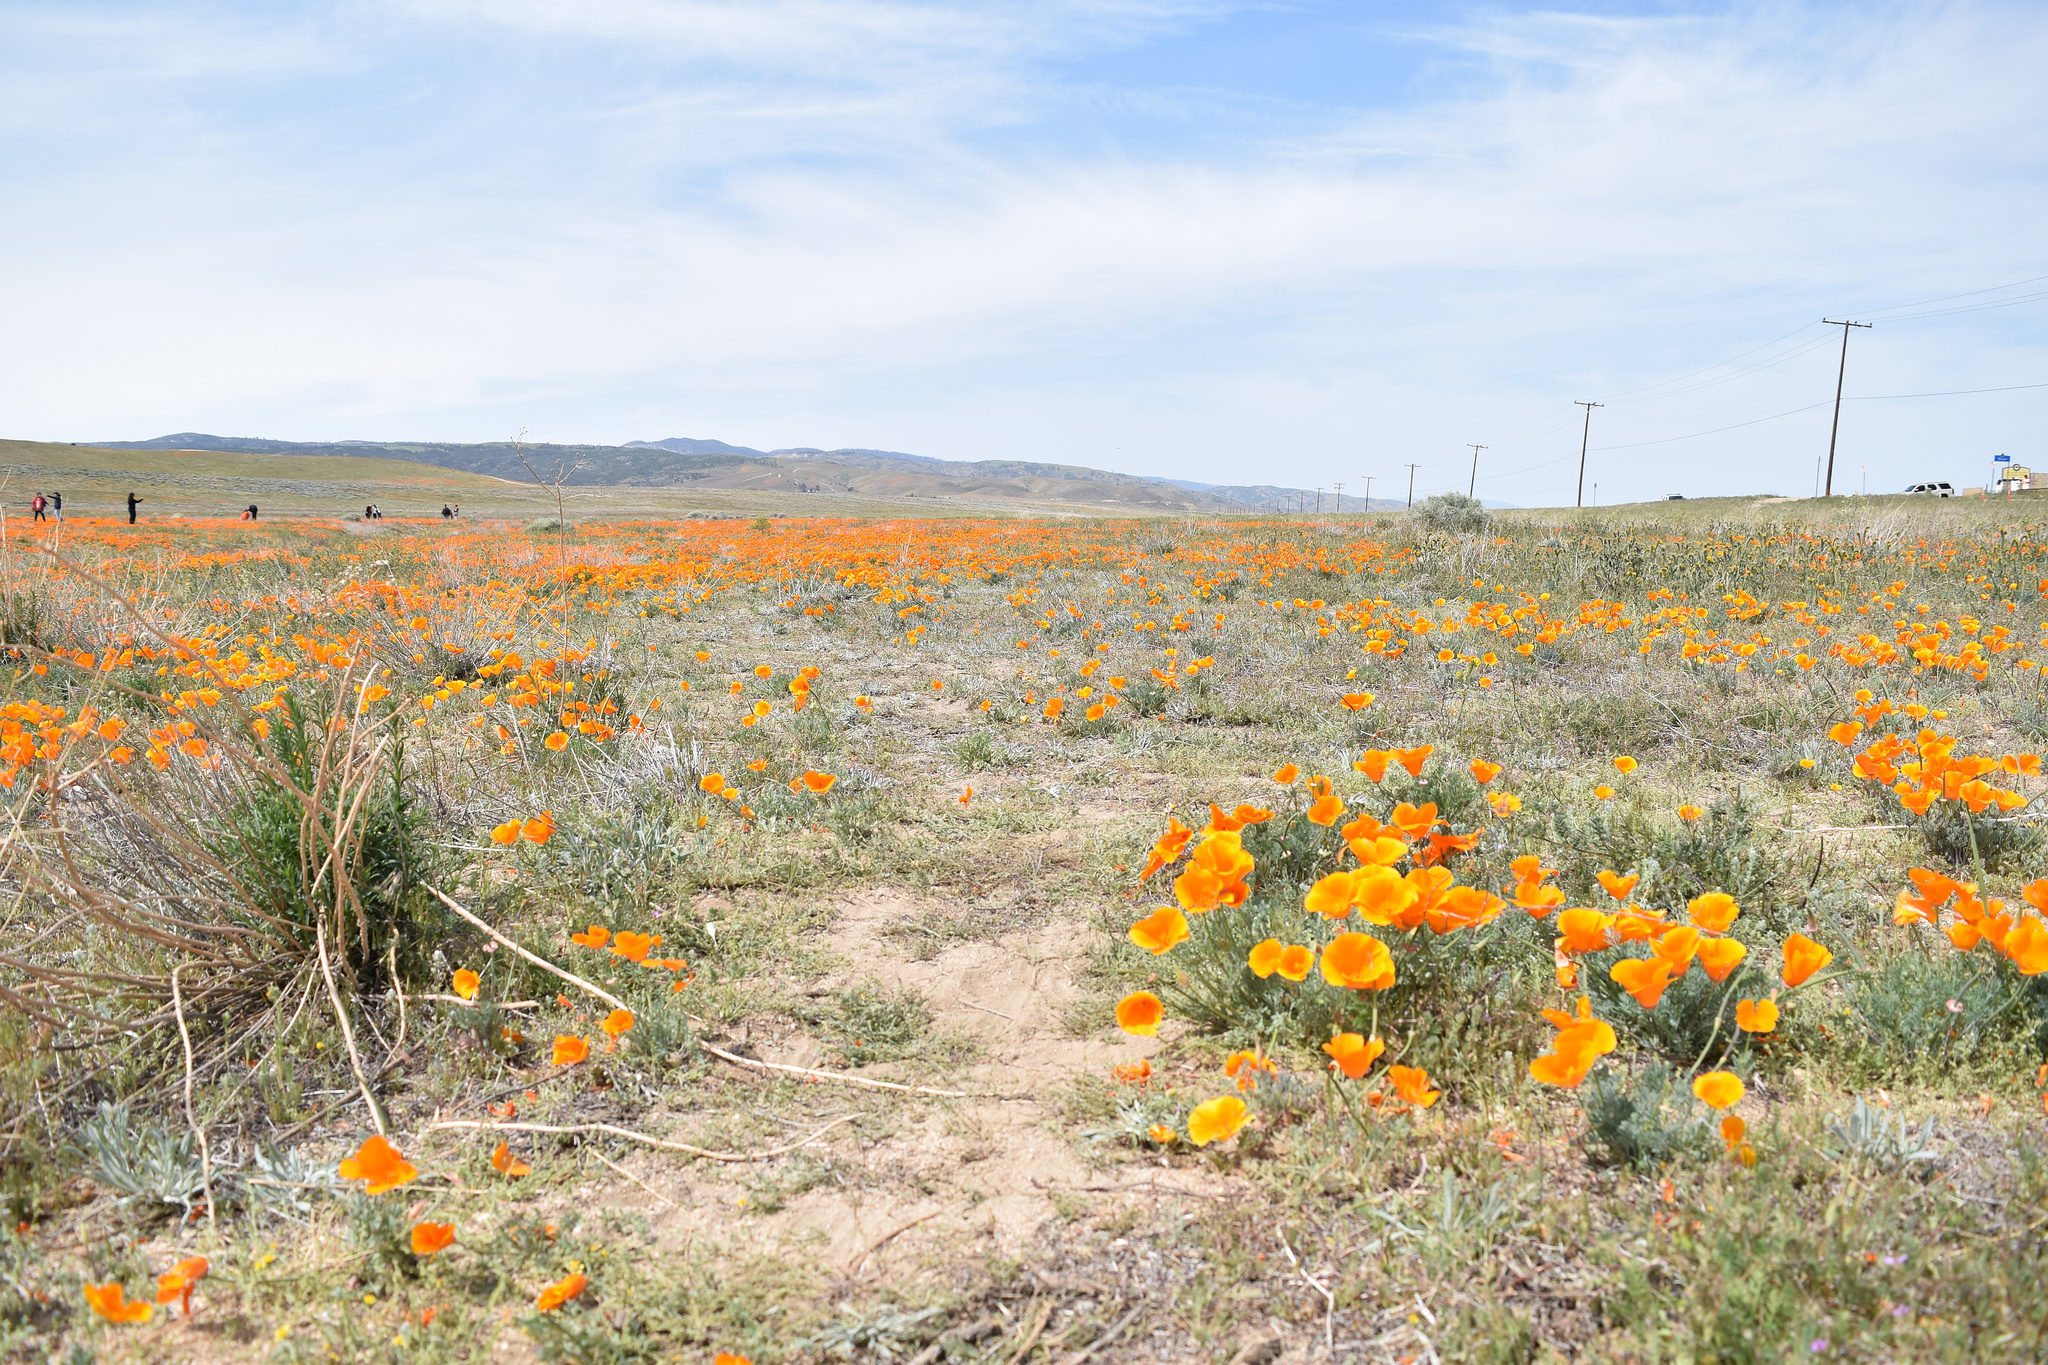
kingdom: Plantae
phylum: Tracheophyta
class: Magnoliopsida
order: Ranunculales
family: Papaveraceae
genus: Eschscholzia
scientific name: Eschscholzia californica
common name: California poppy
